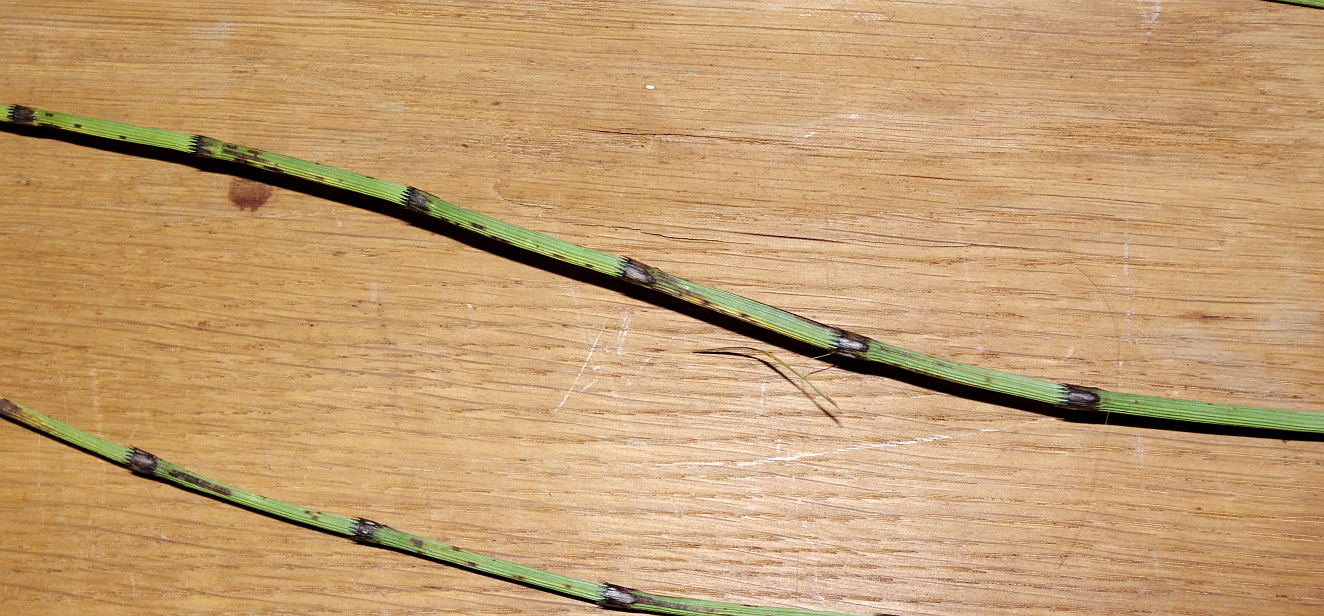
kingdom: Plantae
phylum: Tracheophyta
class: Polypodiopsida
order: Equisetales
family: Equisetaceae
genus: Equisetum
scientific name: Equisetum fluviatile
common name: Water horsetail
